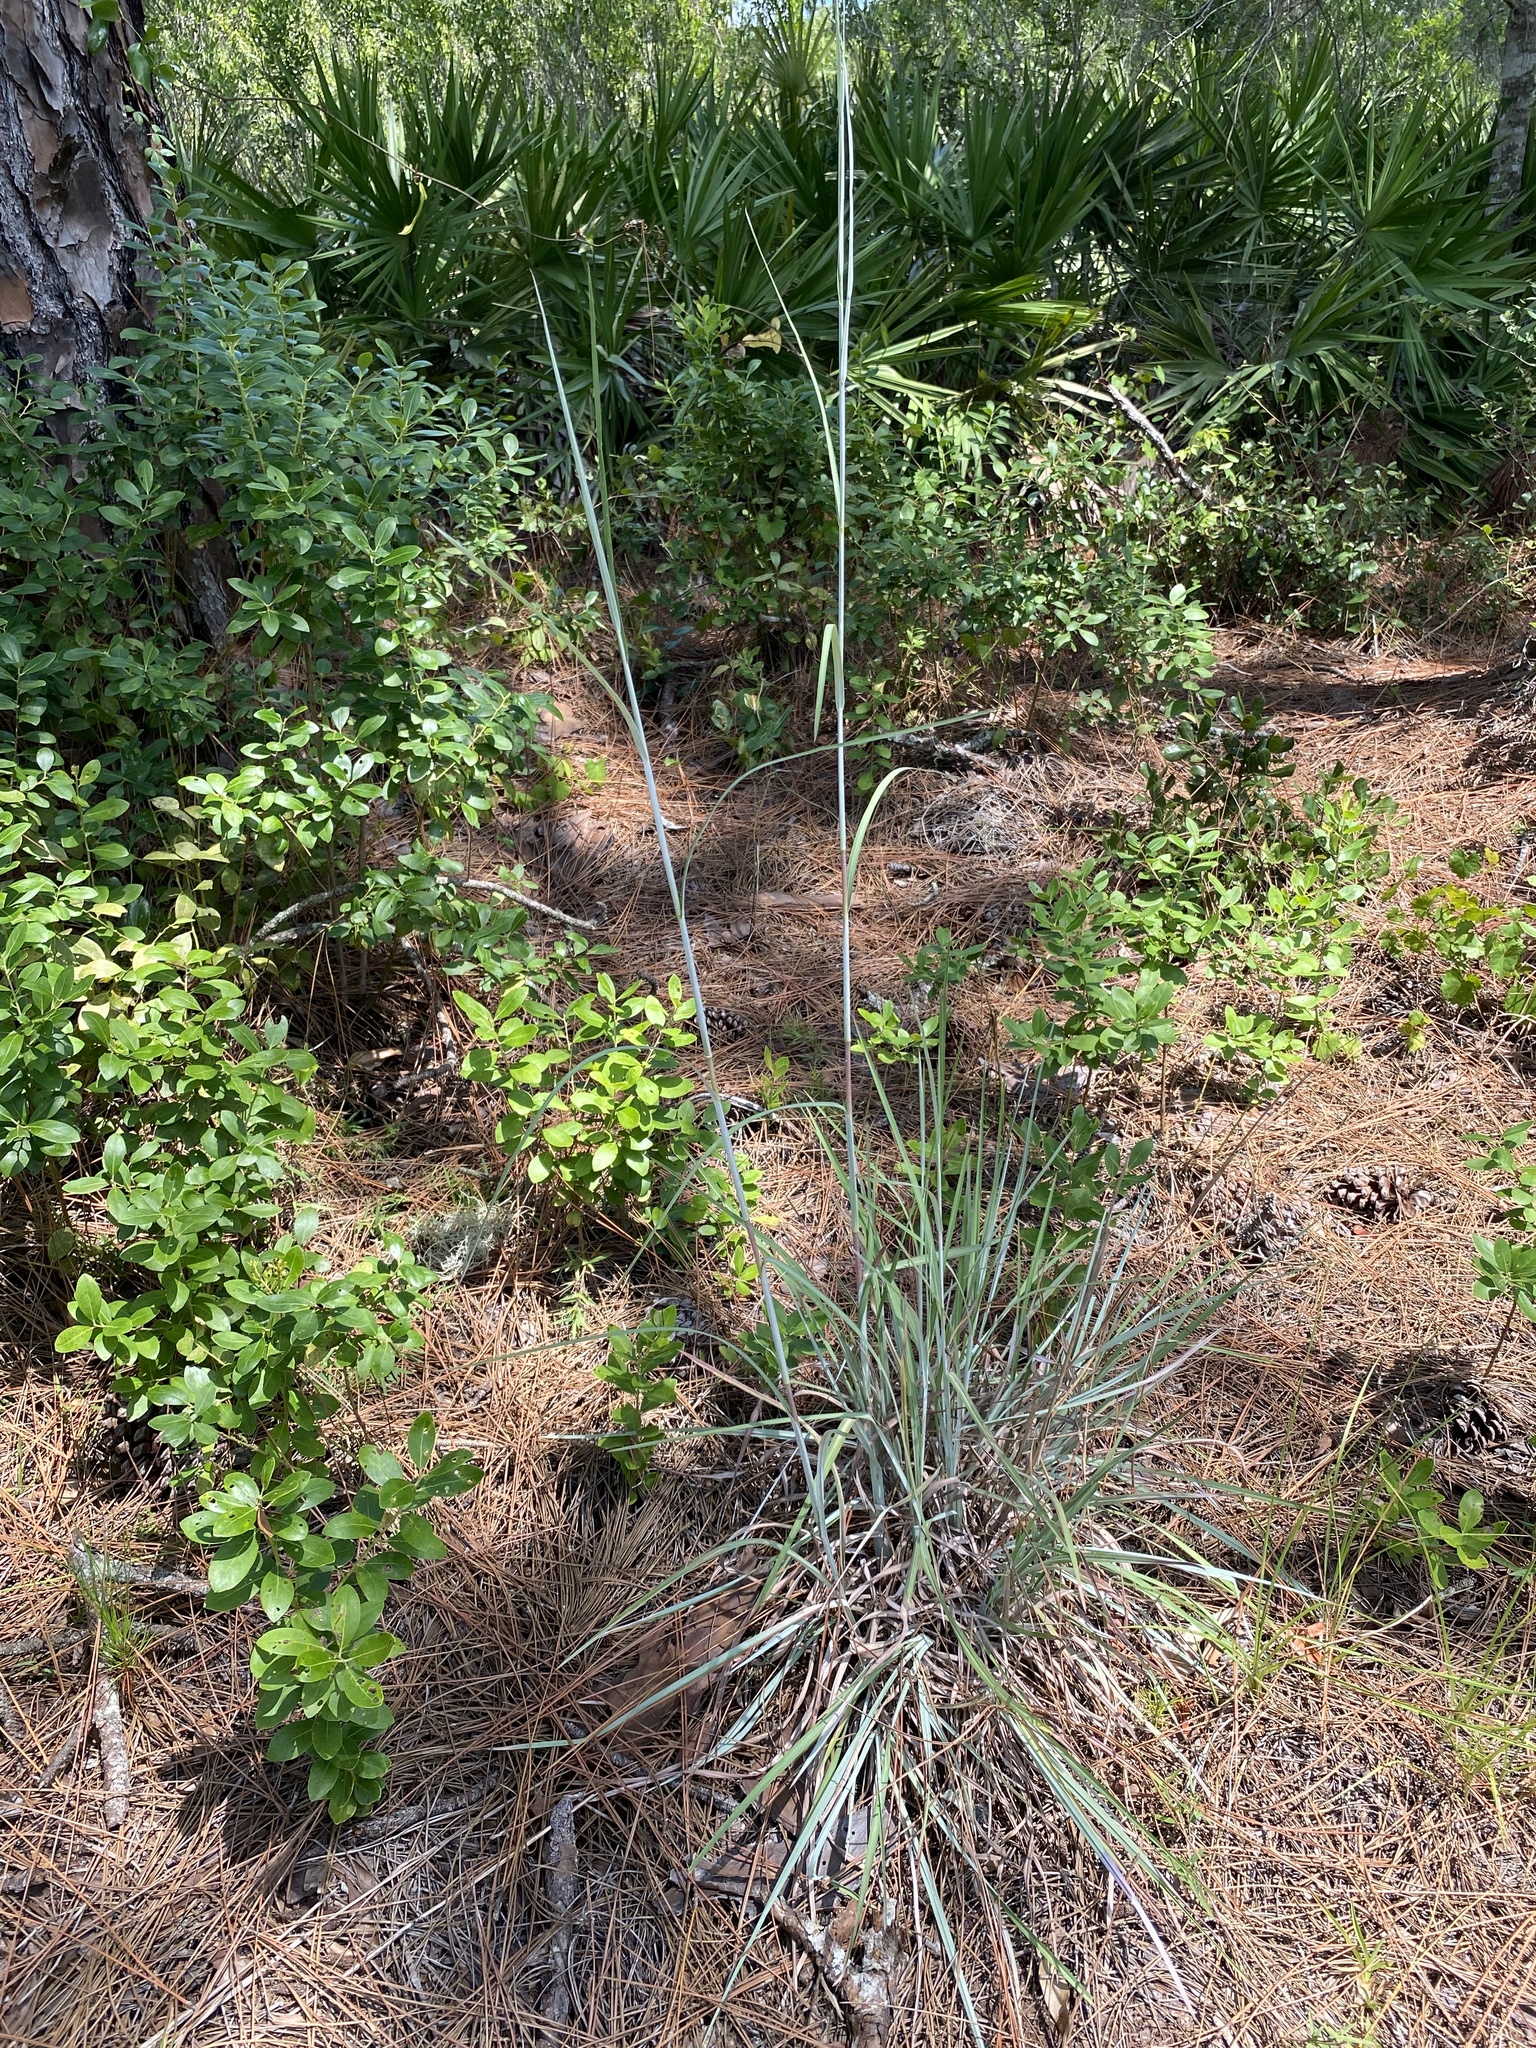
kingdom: Plantae
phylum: Tracheophyta
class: Liliopsida
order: Poales
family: Poaceae
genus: Andropogon
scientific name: Andropogon capillipes
